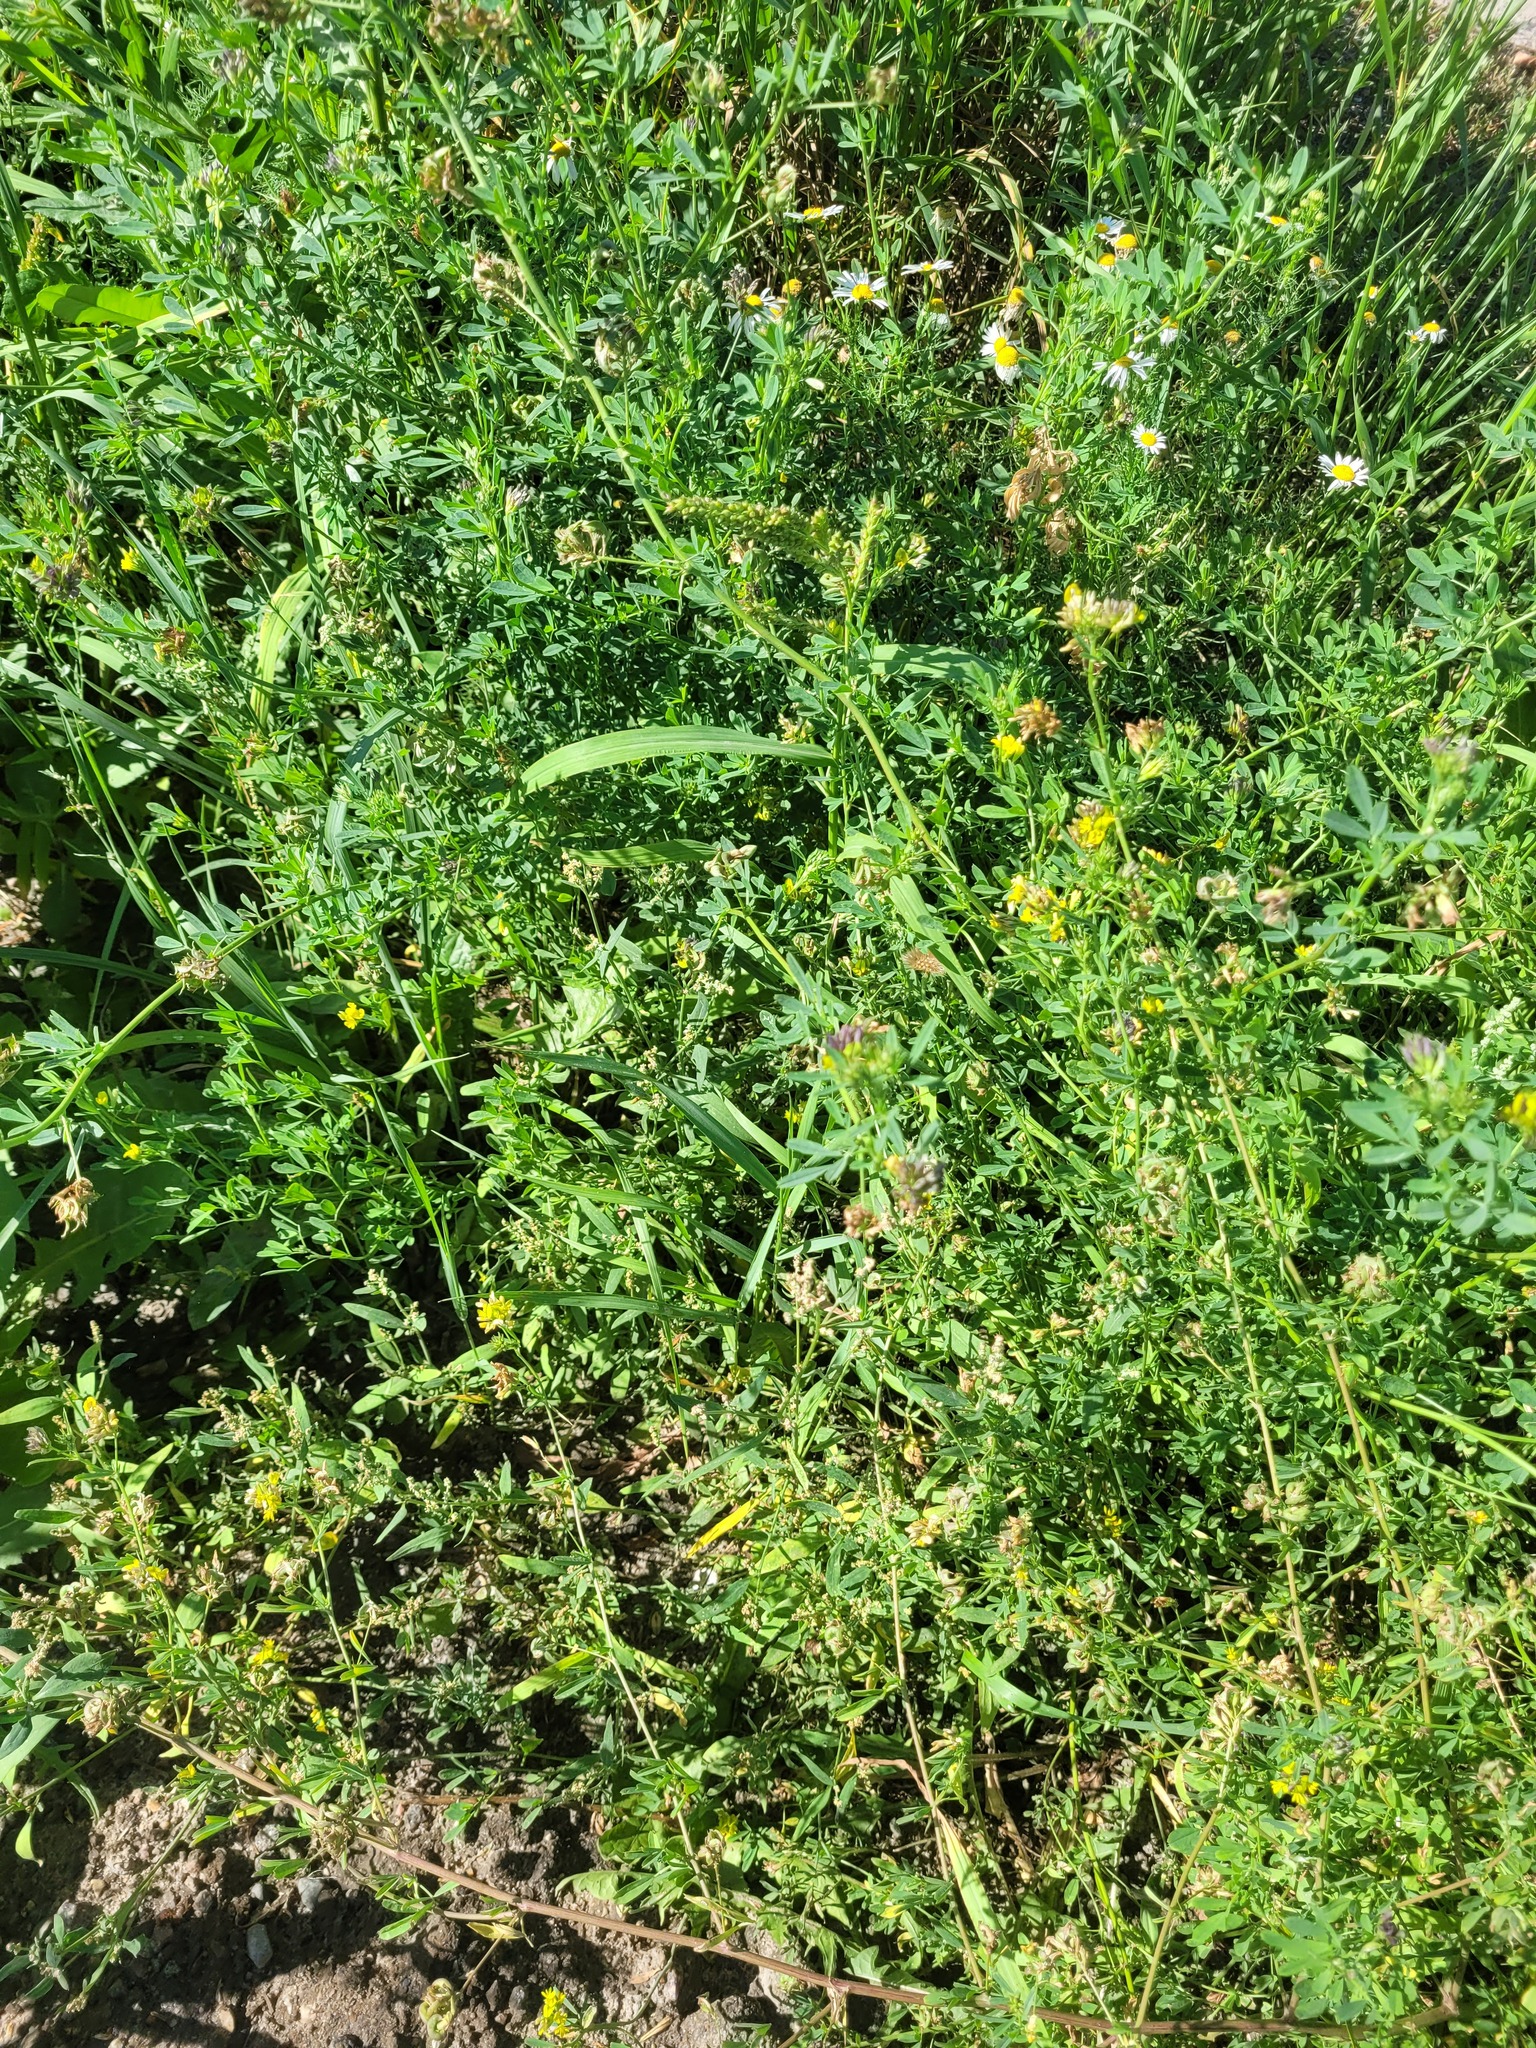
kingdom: Plantae
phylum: Tracheophyta
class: Magnoliopsida
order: Fabales
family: Fabaceae
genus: Medicago
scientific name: Medicago varia
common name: Sand lucerne
